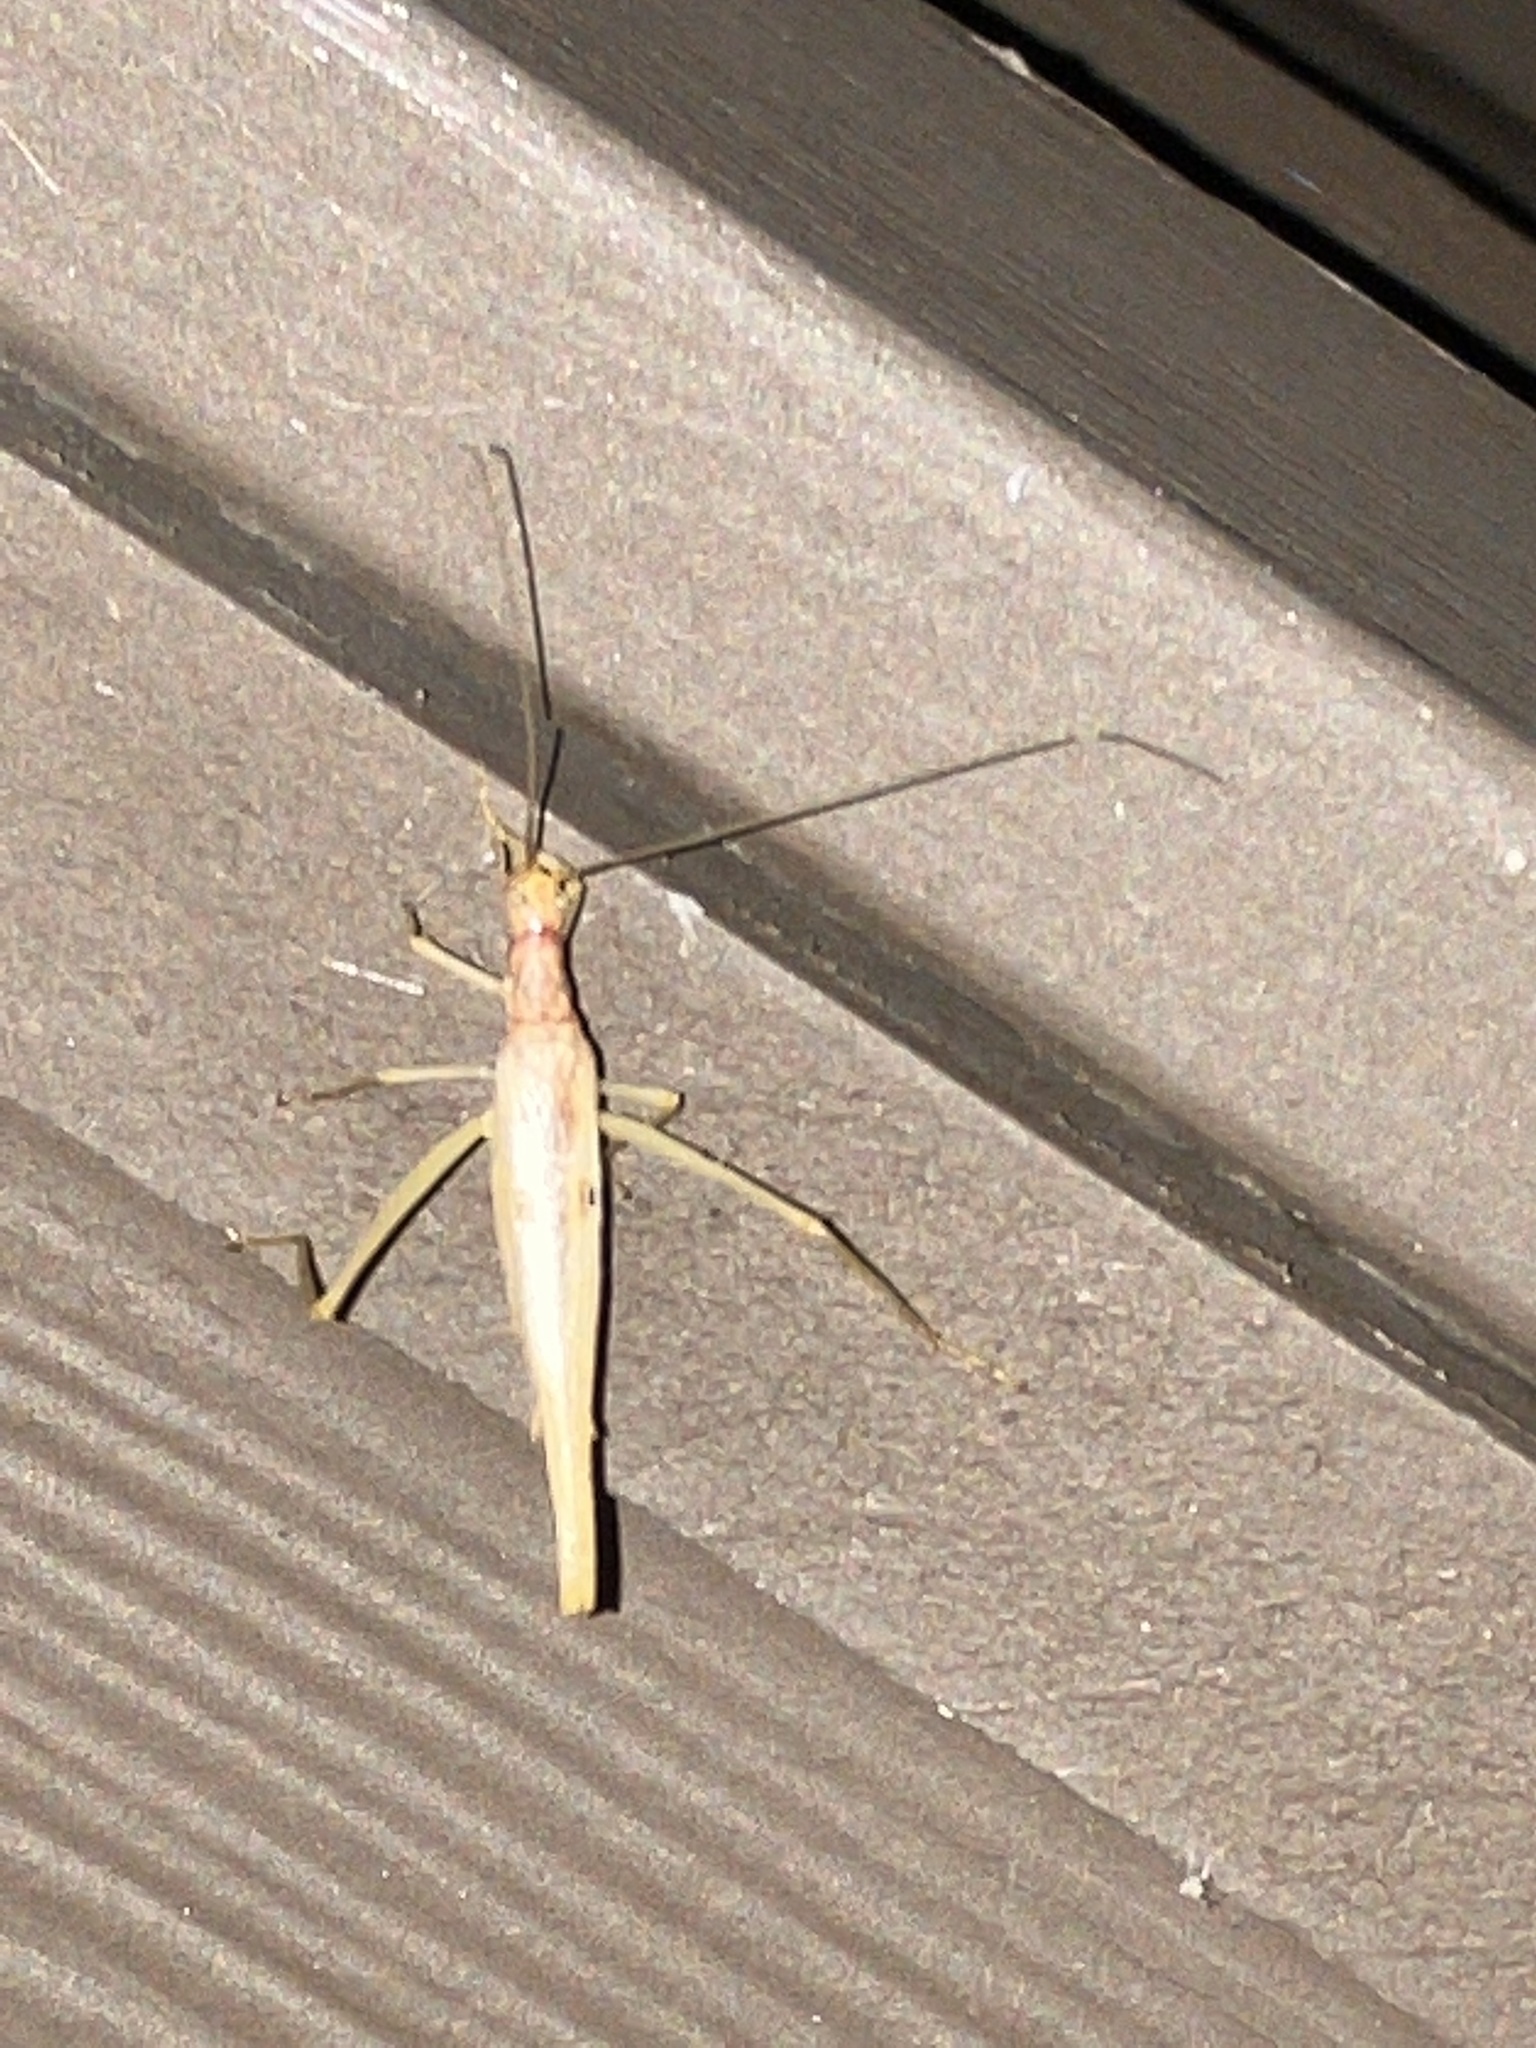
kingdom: Animalia
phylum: Arthropoda
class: Insecta
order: Orthoptera
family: Gryllidae
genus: Neoxabea
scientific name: Neoxabea bipunctata
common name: Two-spotted tree cricket
